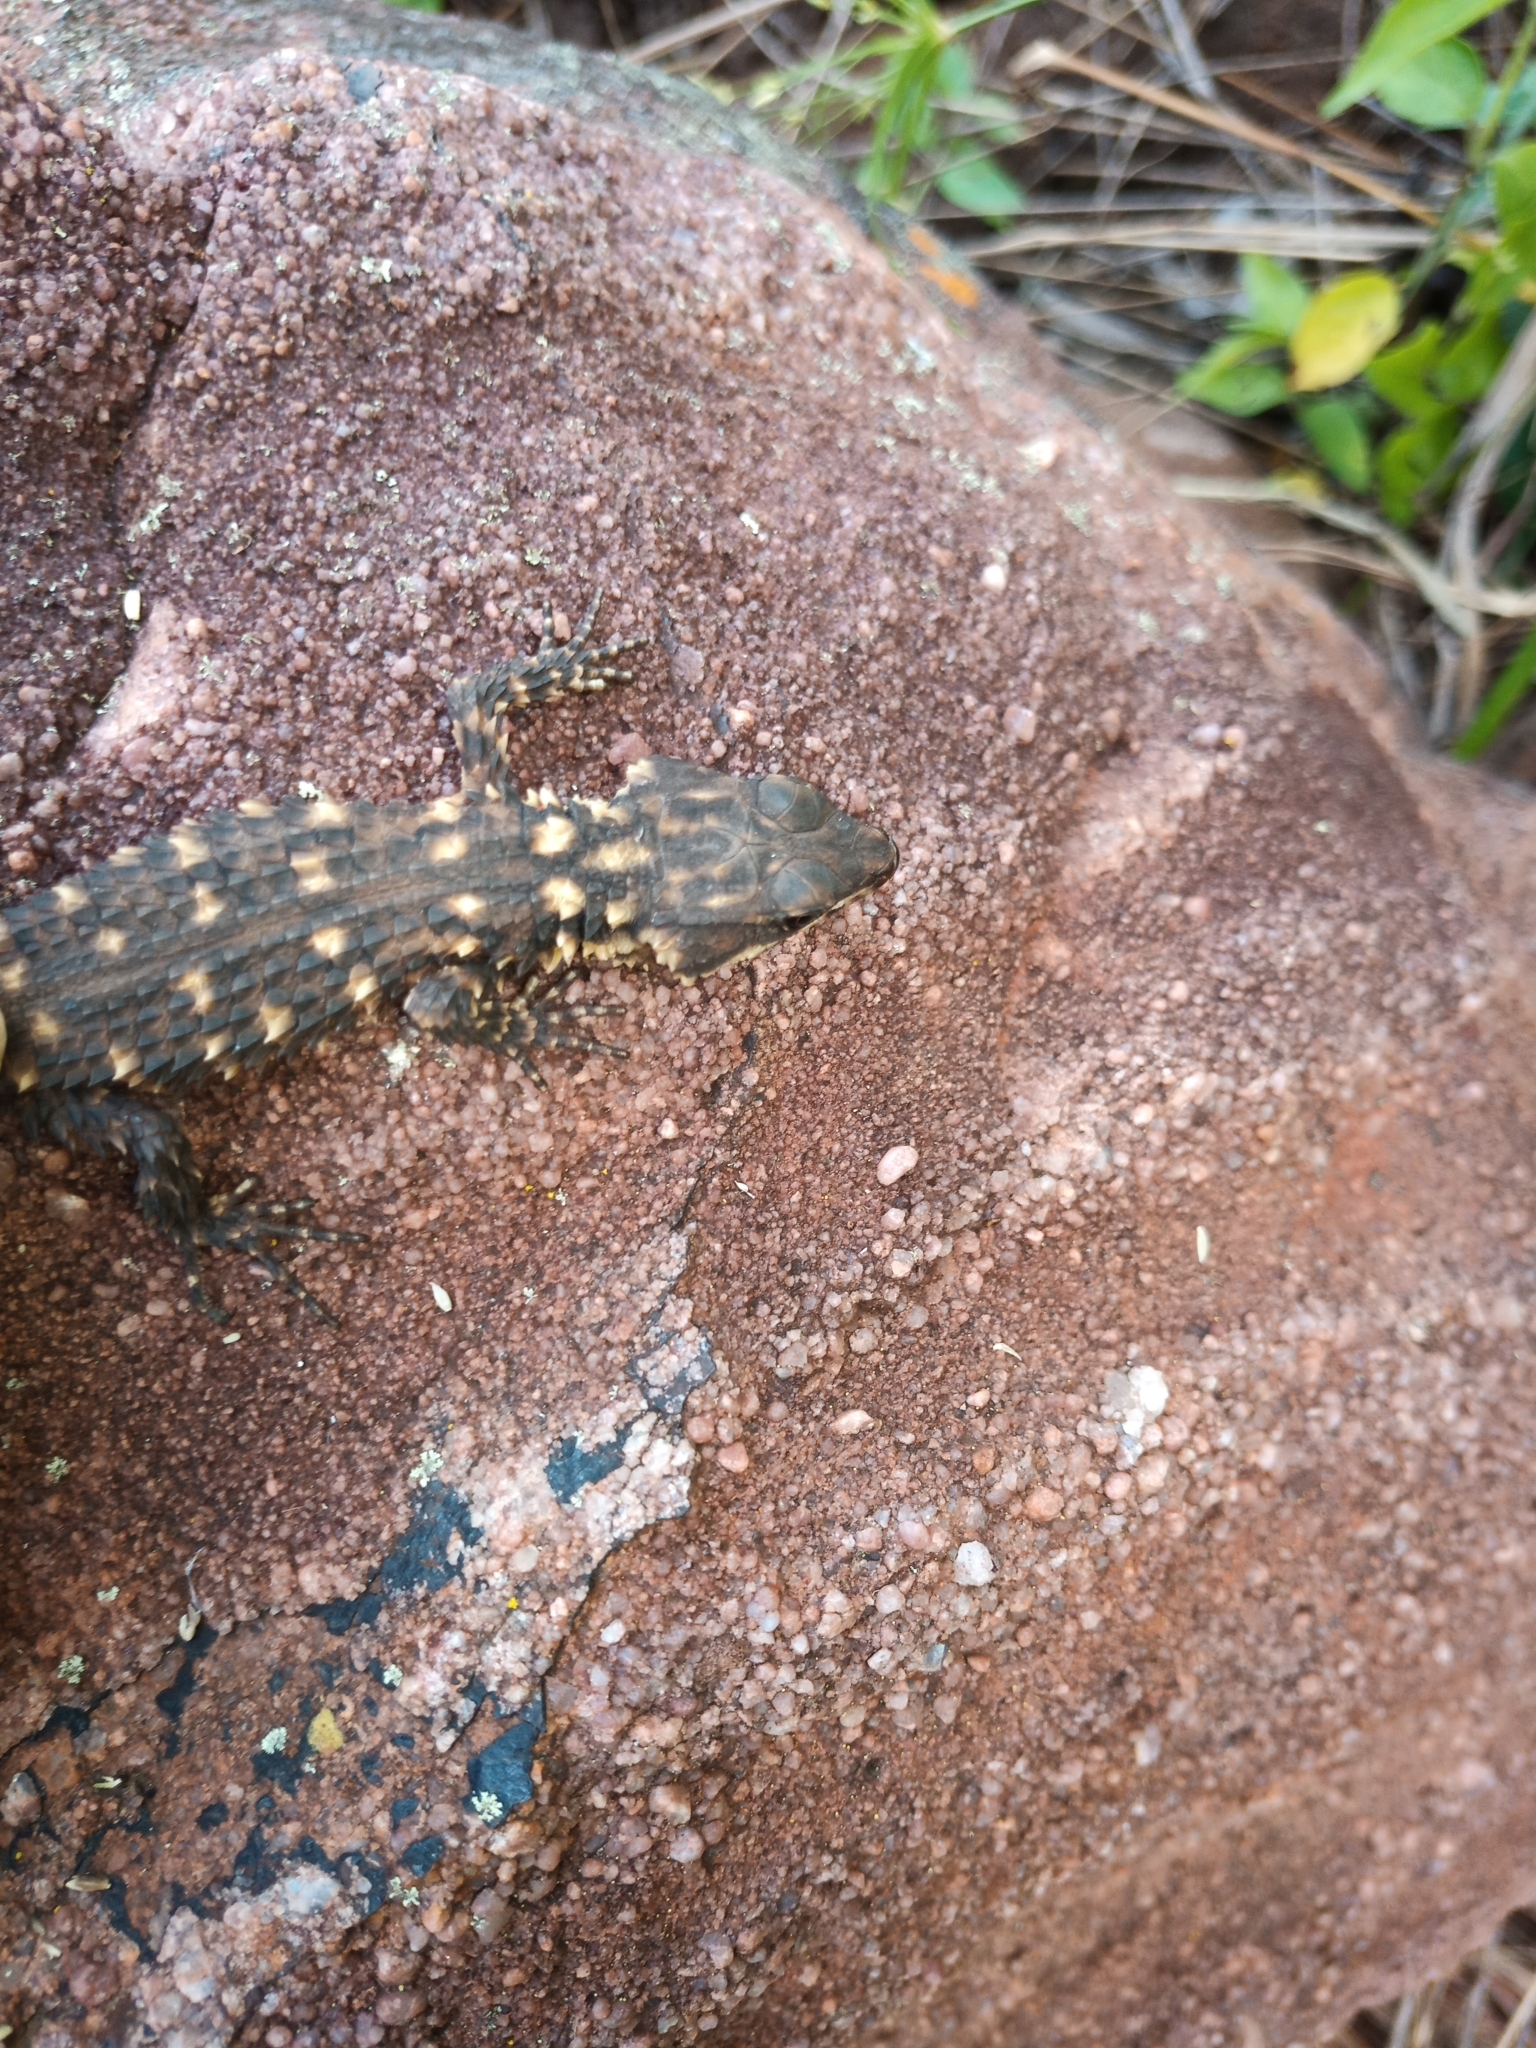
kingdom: Animalia
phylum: Chordata
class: Squamata
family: Cordylidae
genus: Smaug
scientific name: Smaug depressus
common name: Flat dragon lizard
